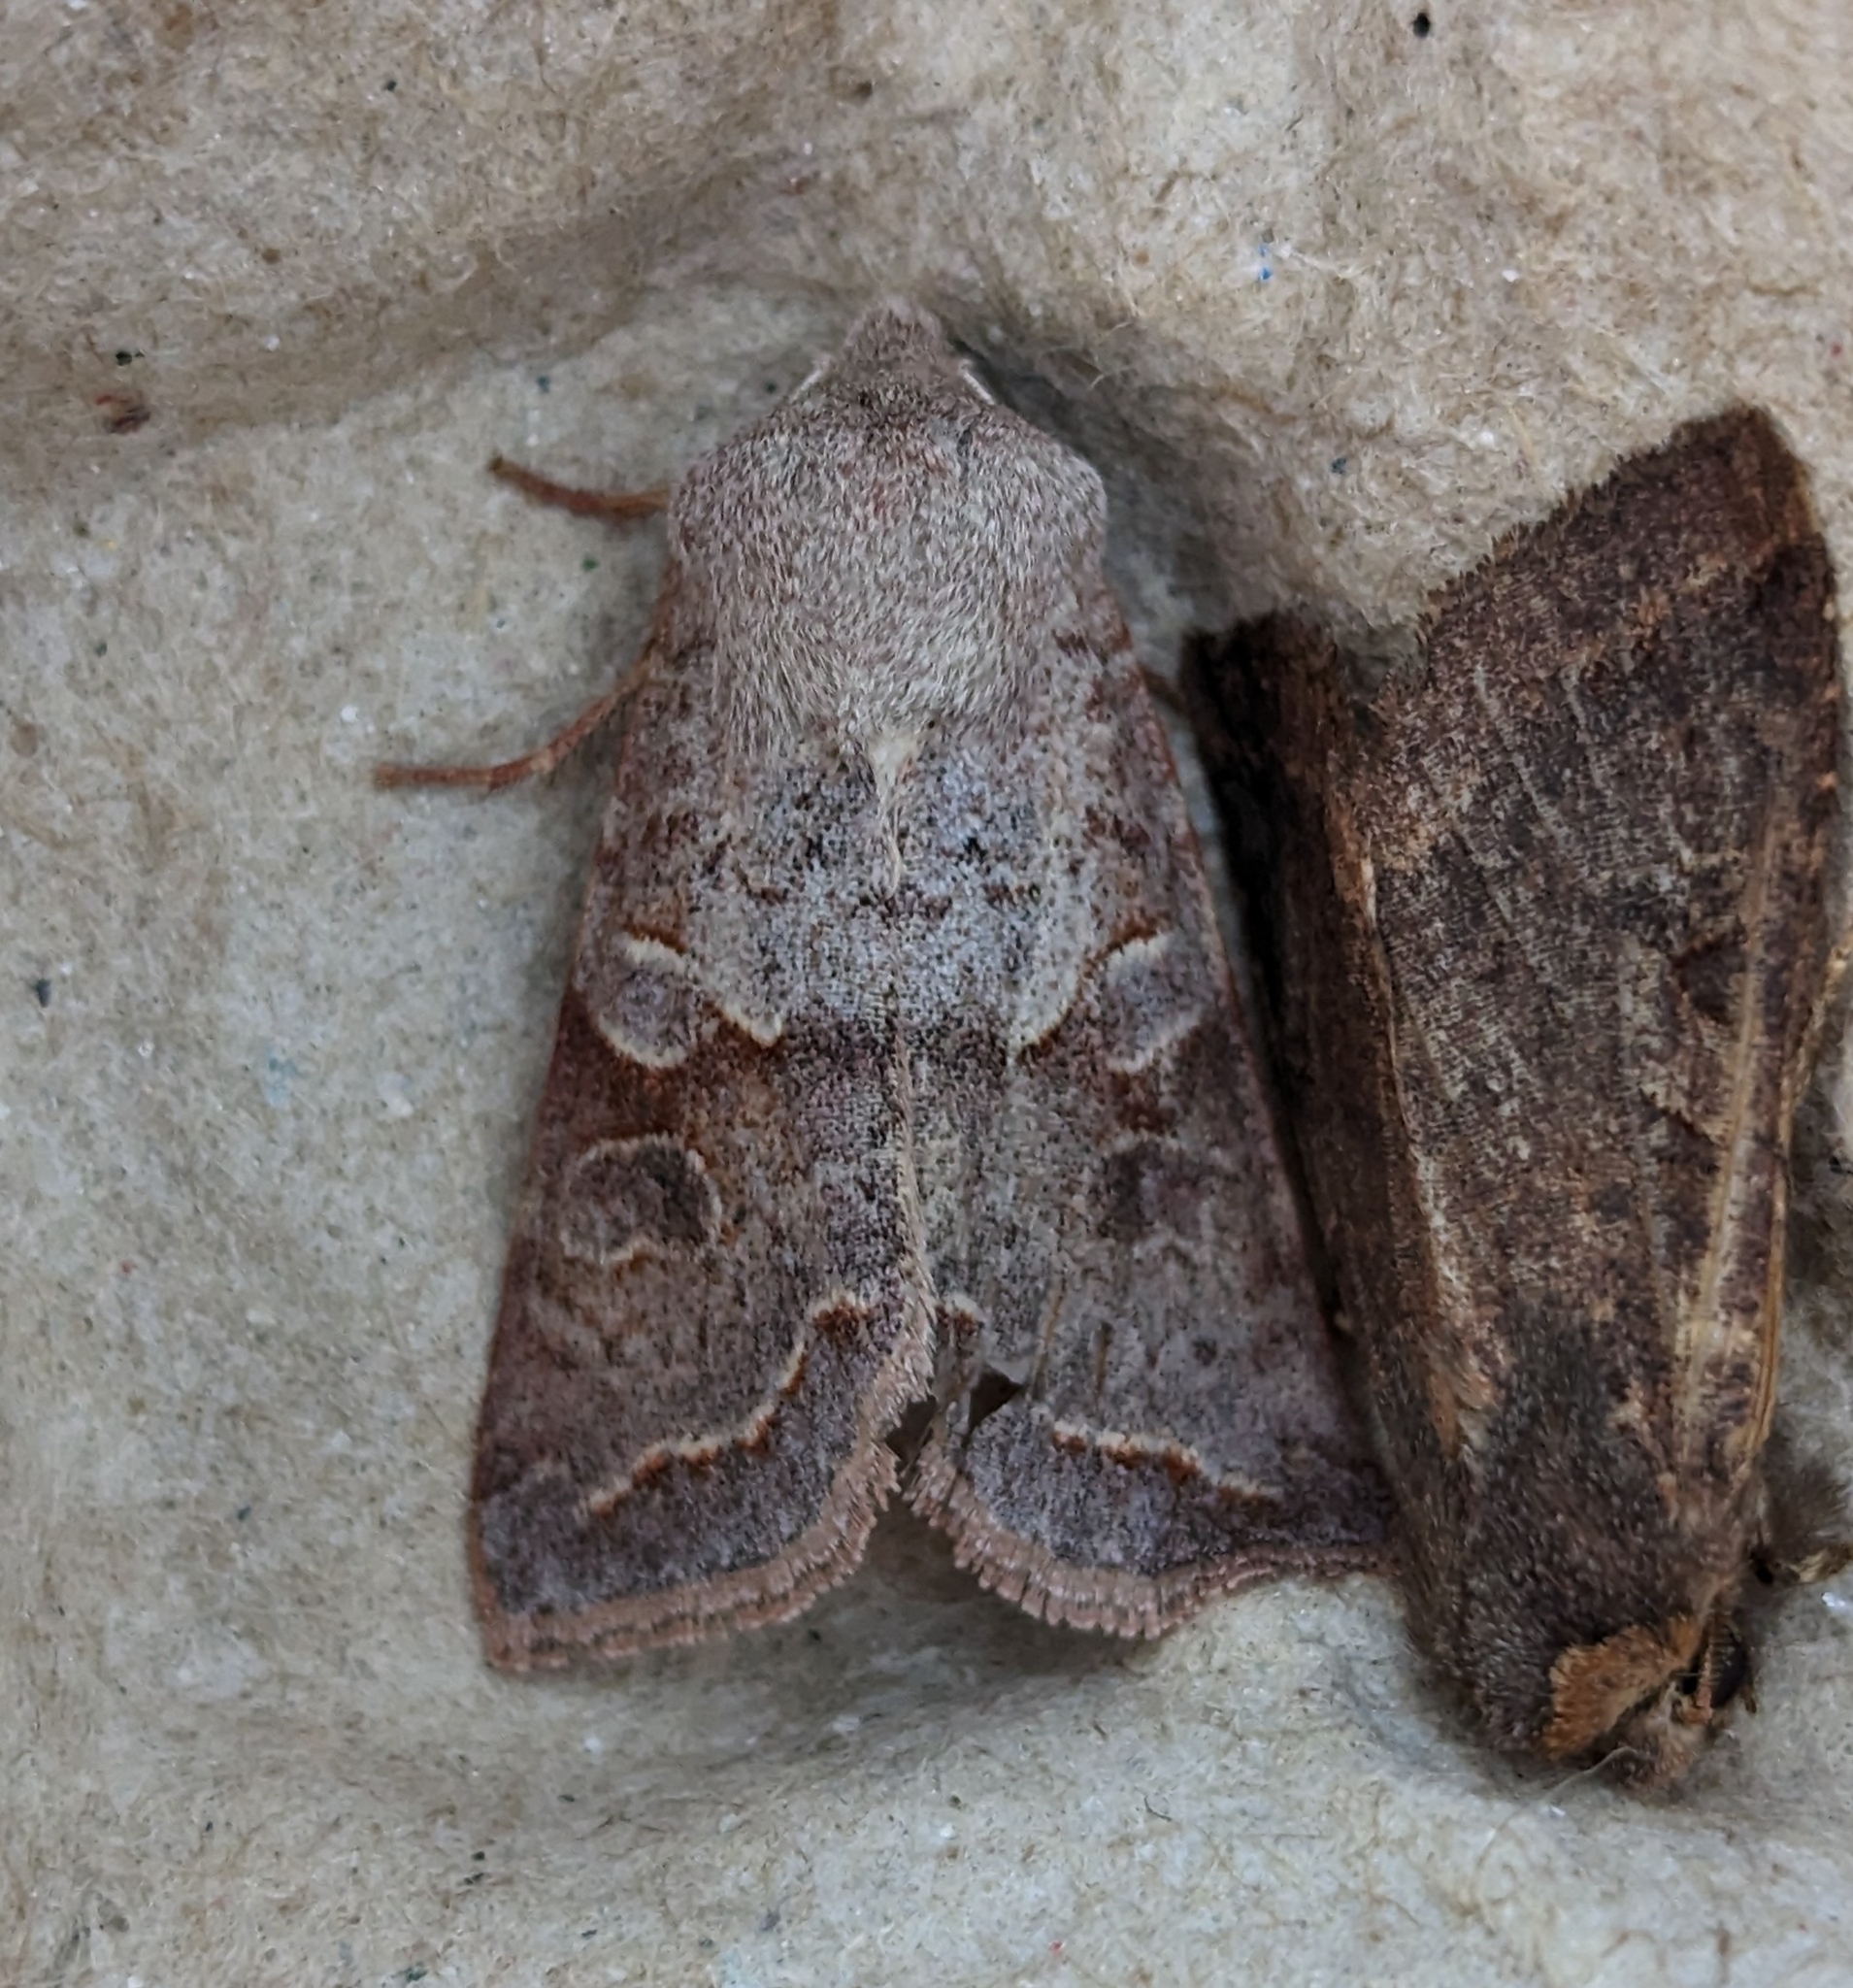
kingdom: Animalia
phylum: Arthropoda
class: Insecta
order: Lepidoptera
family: Noctuidae
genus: Orthosia
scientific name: Orthosia revicta
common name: Rusty whitesided caterpillar
